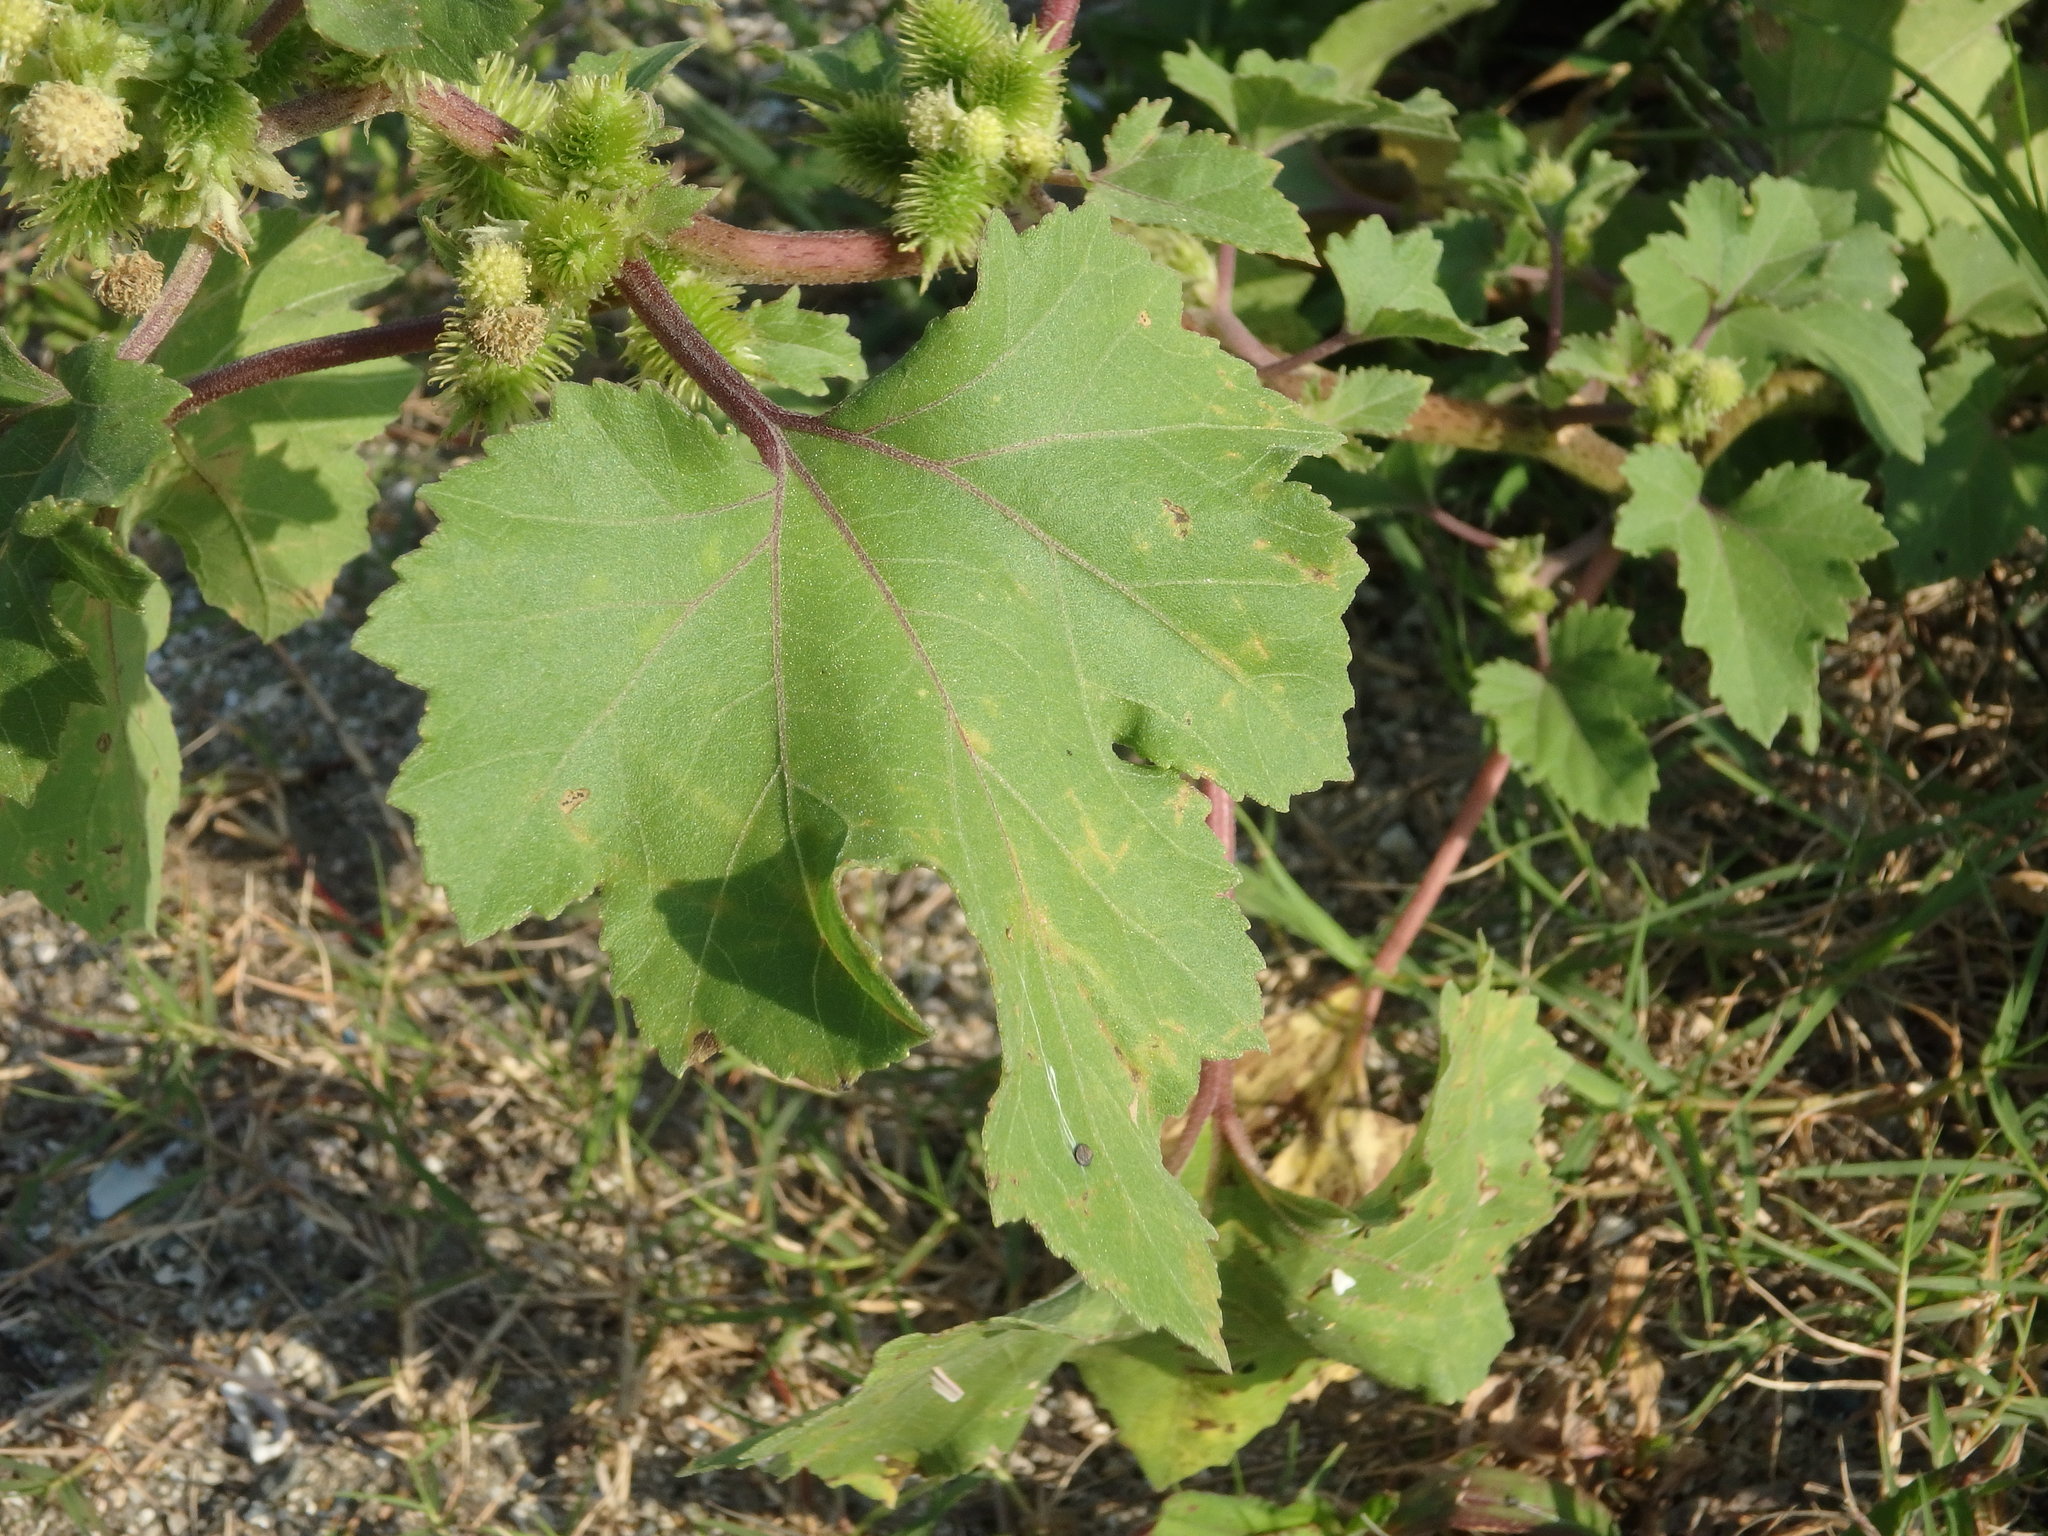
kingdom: Plantae
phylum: Tracheophyta
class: Magnoliopsida
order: Asterales
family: Asteraceae
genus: Xanthium
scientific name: Xanthium orientale
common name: Californian burr
